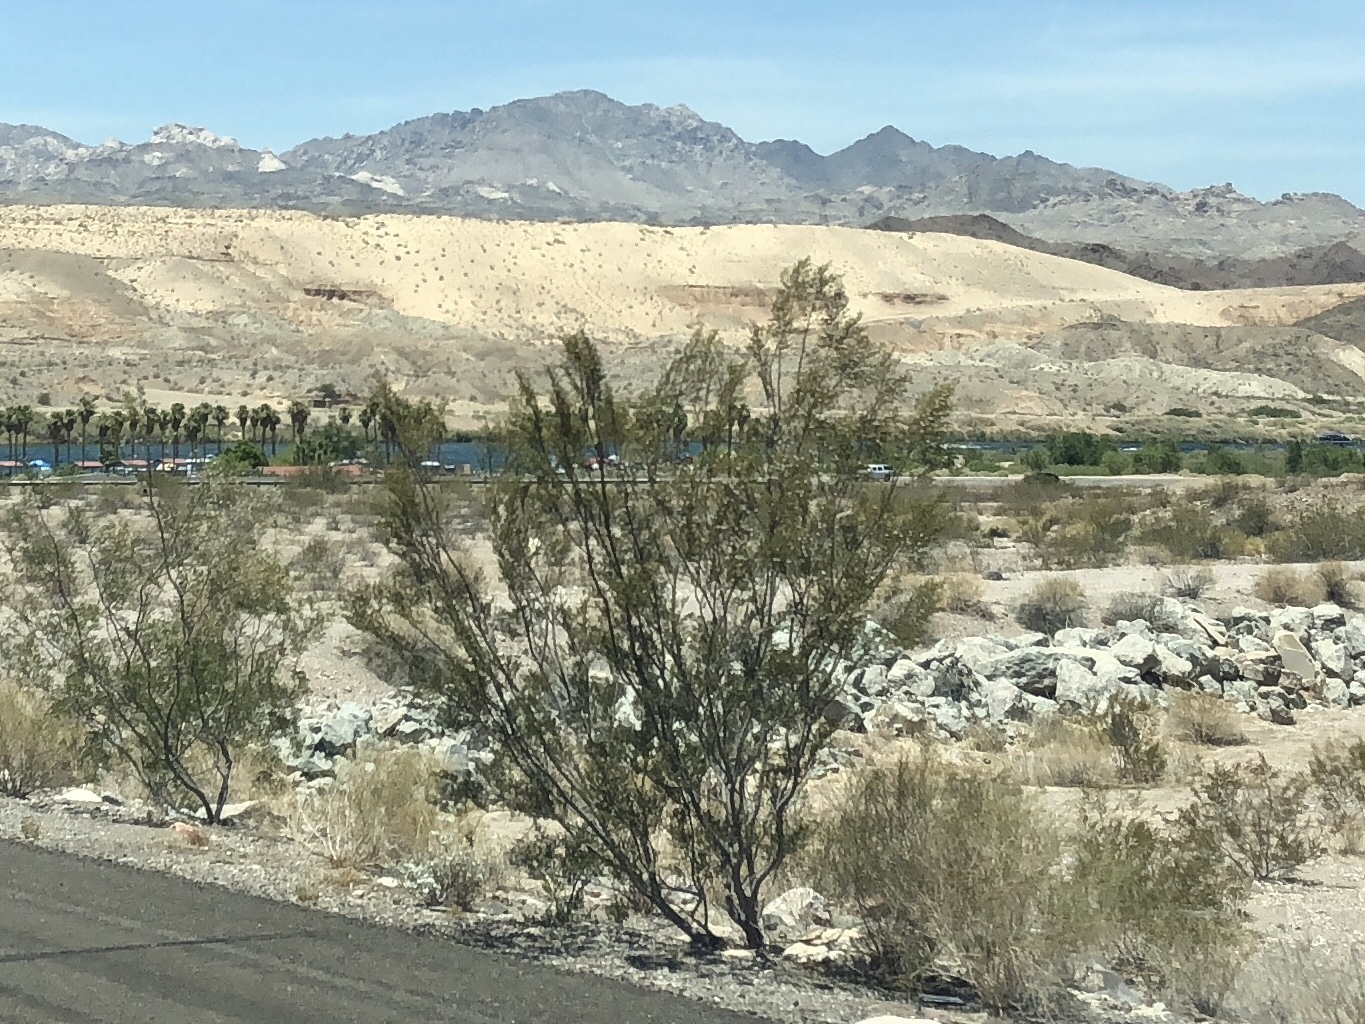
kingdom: Plantae
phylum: Tracheophyta
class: Magnoliopsida
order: Zygophyllales
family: Zygophyllaceae
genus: Larrea
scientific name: Larrea tridentata
